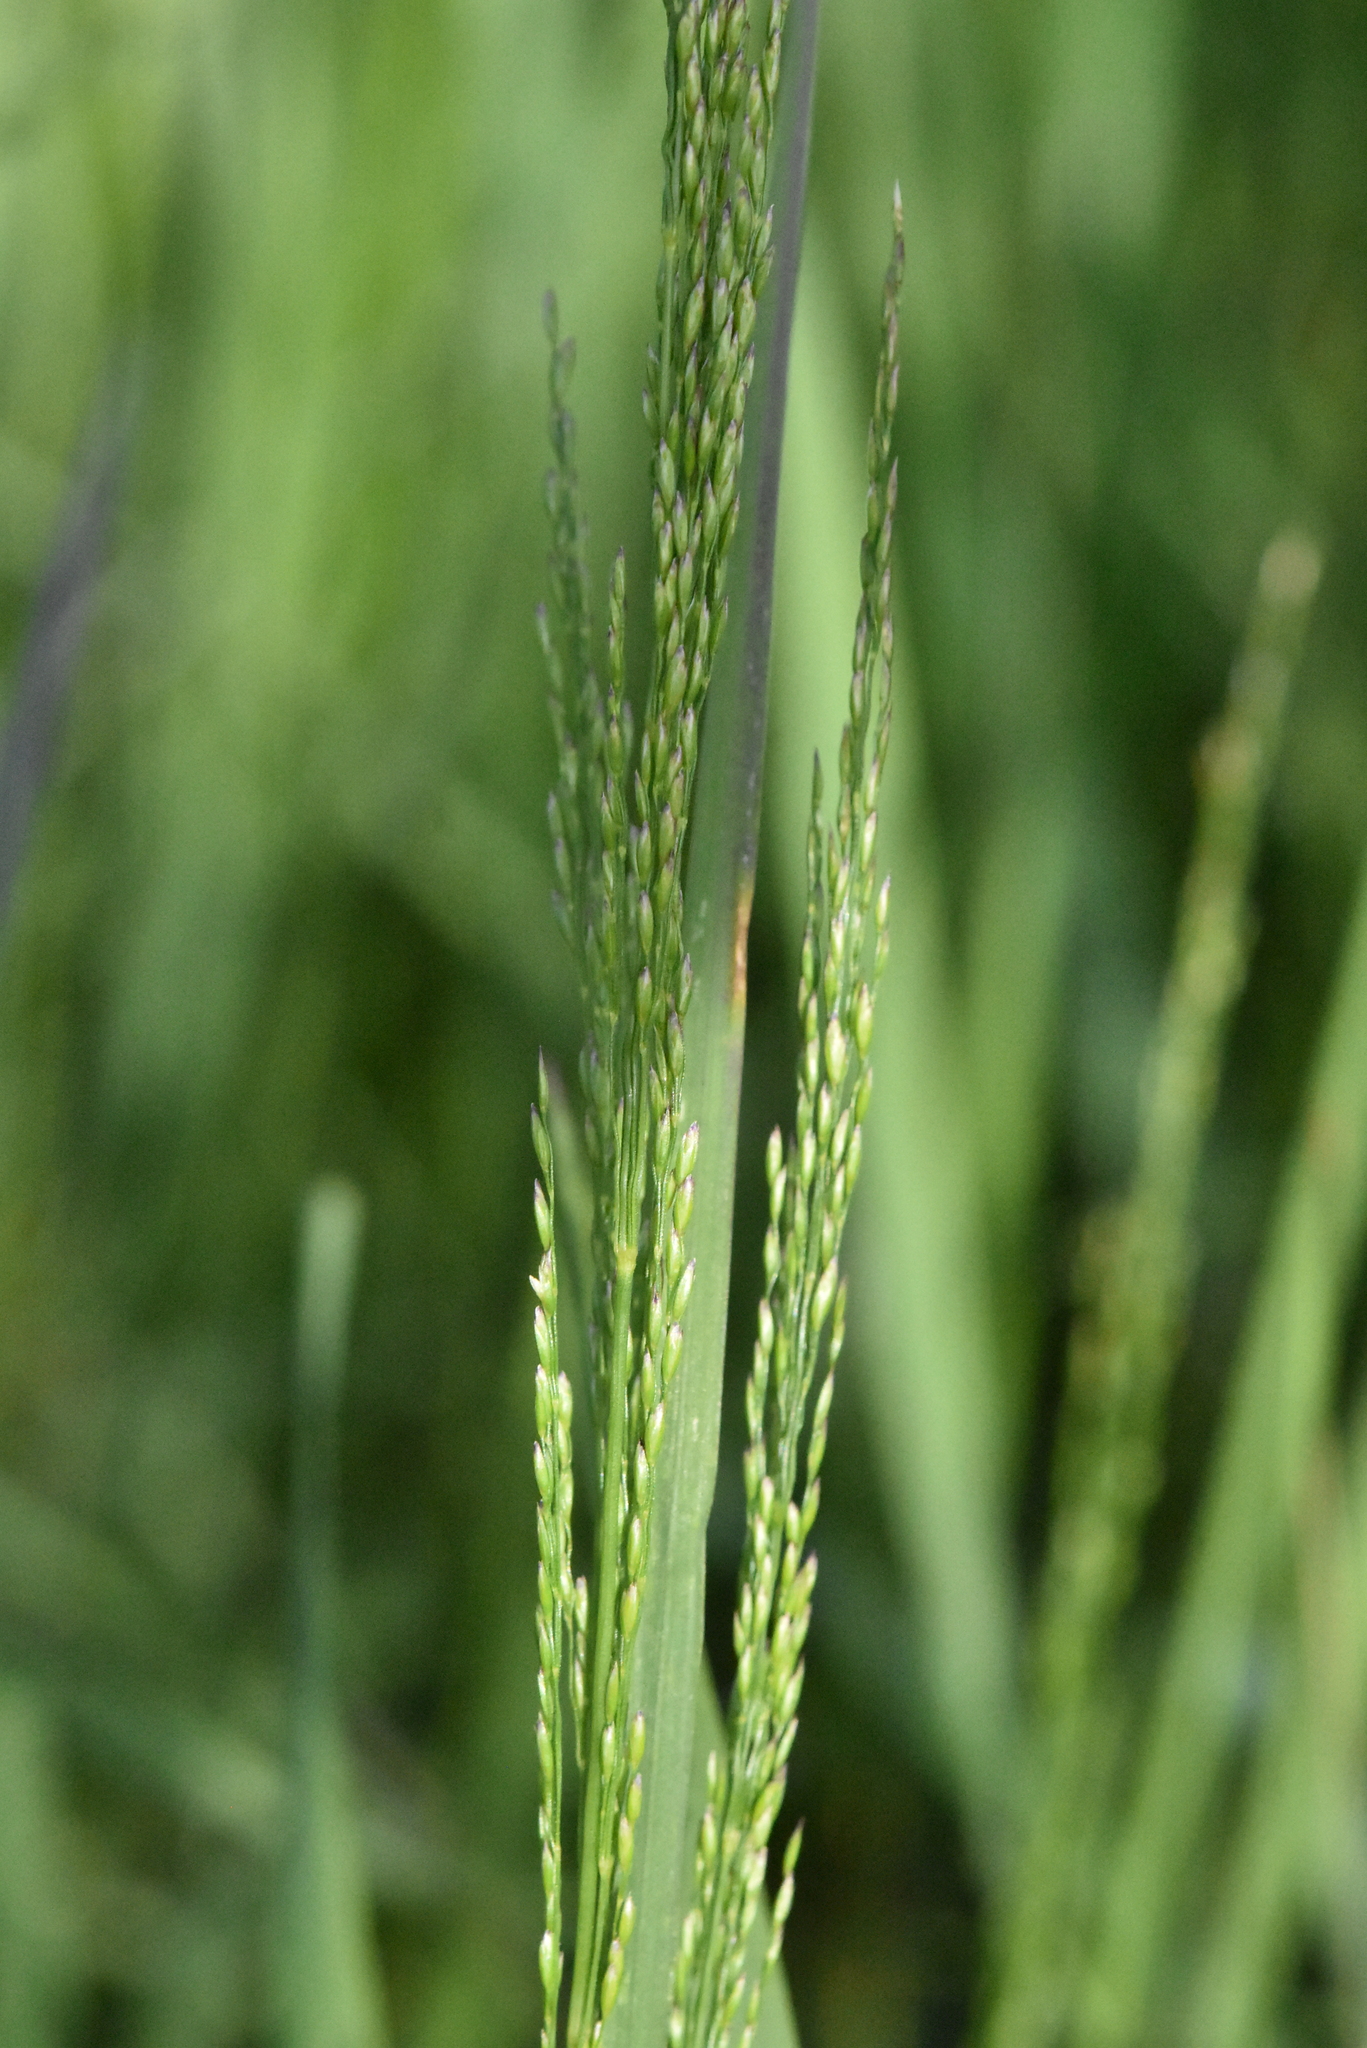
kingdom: Plantae
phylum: Tracheophyta
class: Liliopsida
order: Poales
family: Poaceae
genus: Poa
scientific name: Poa palustris
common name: Swamp meadow-grass
